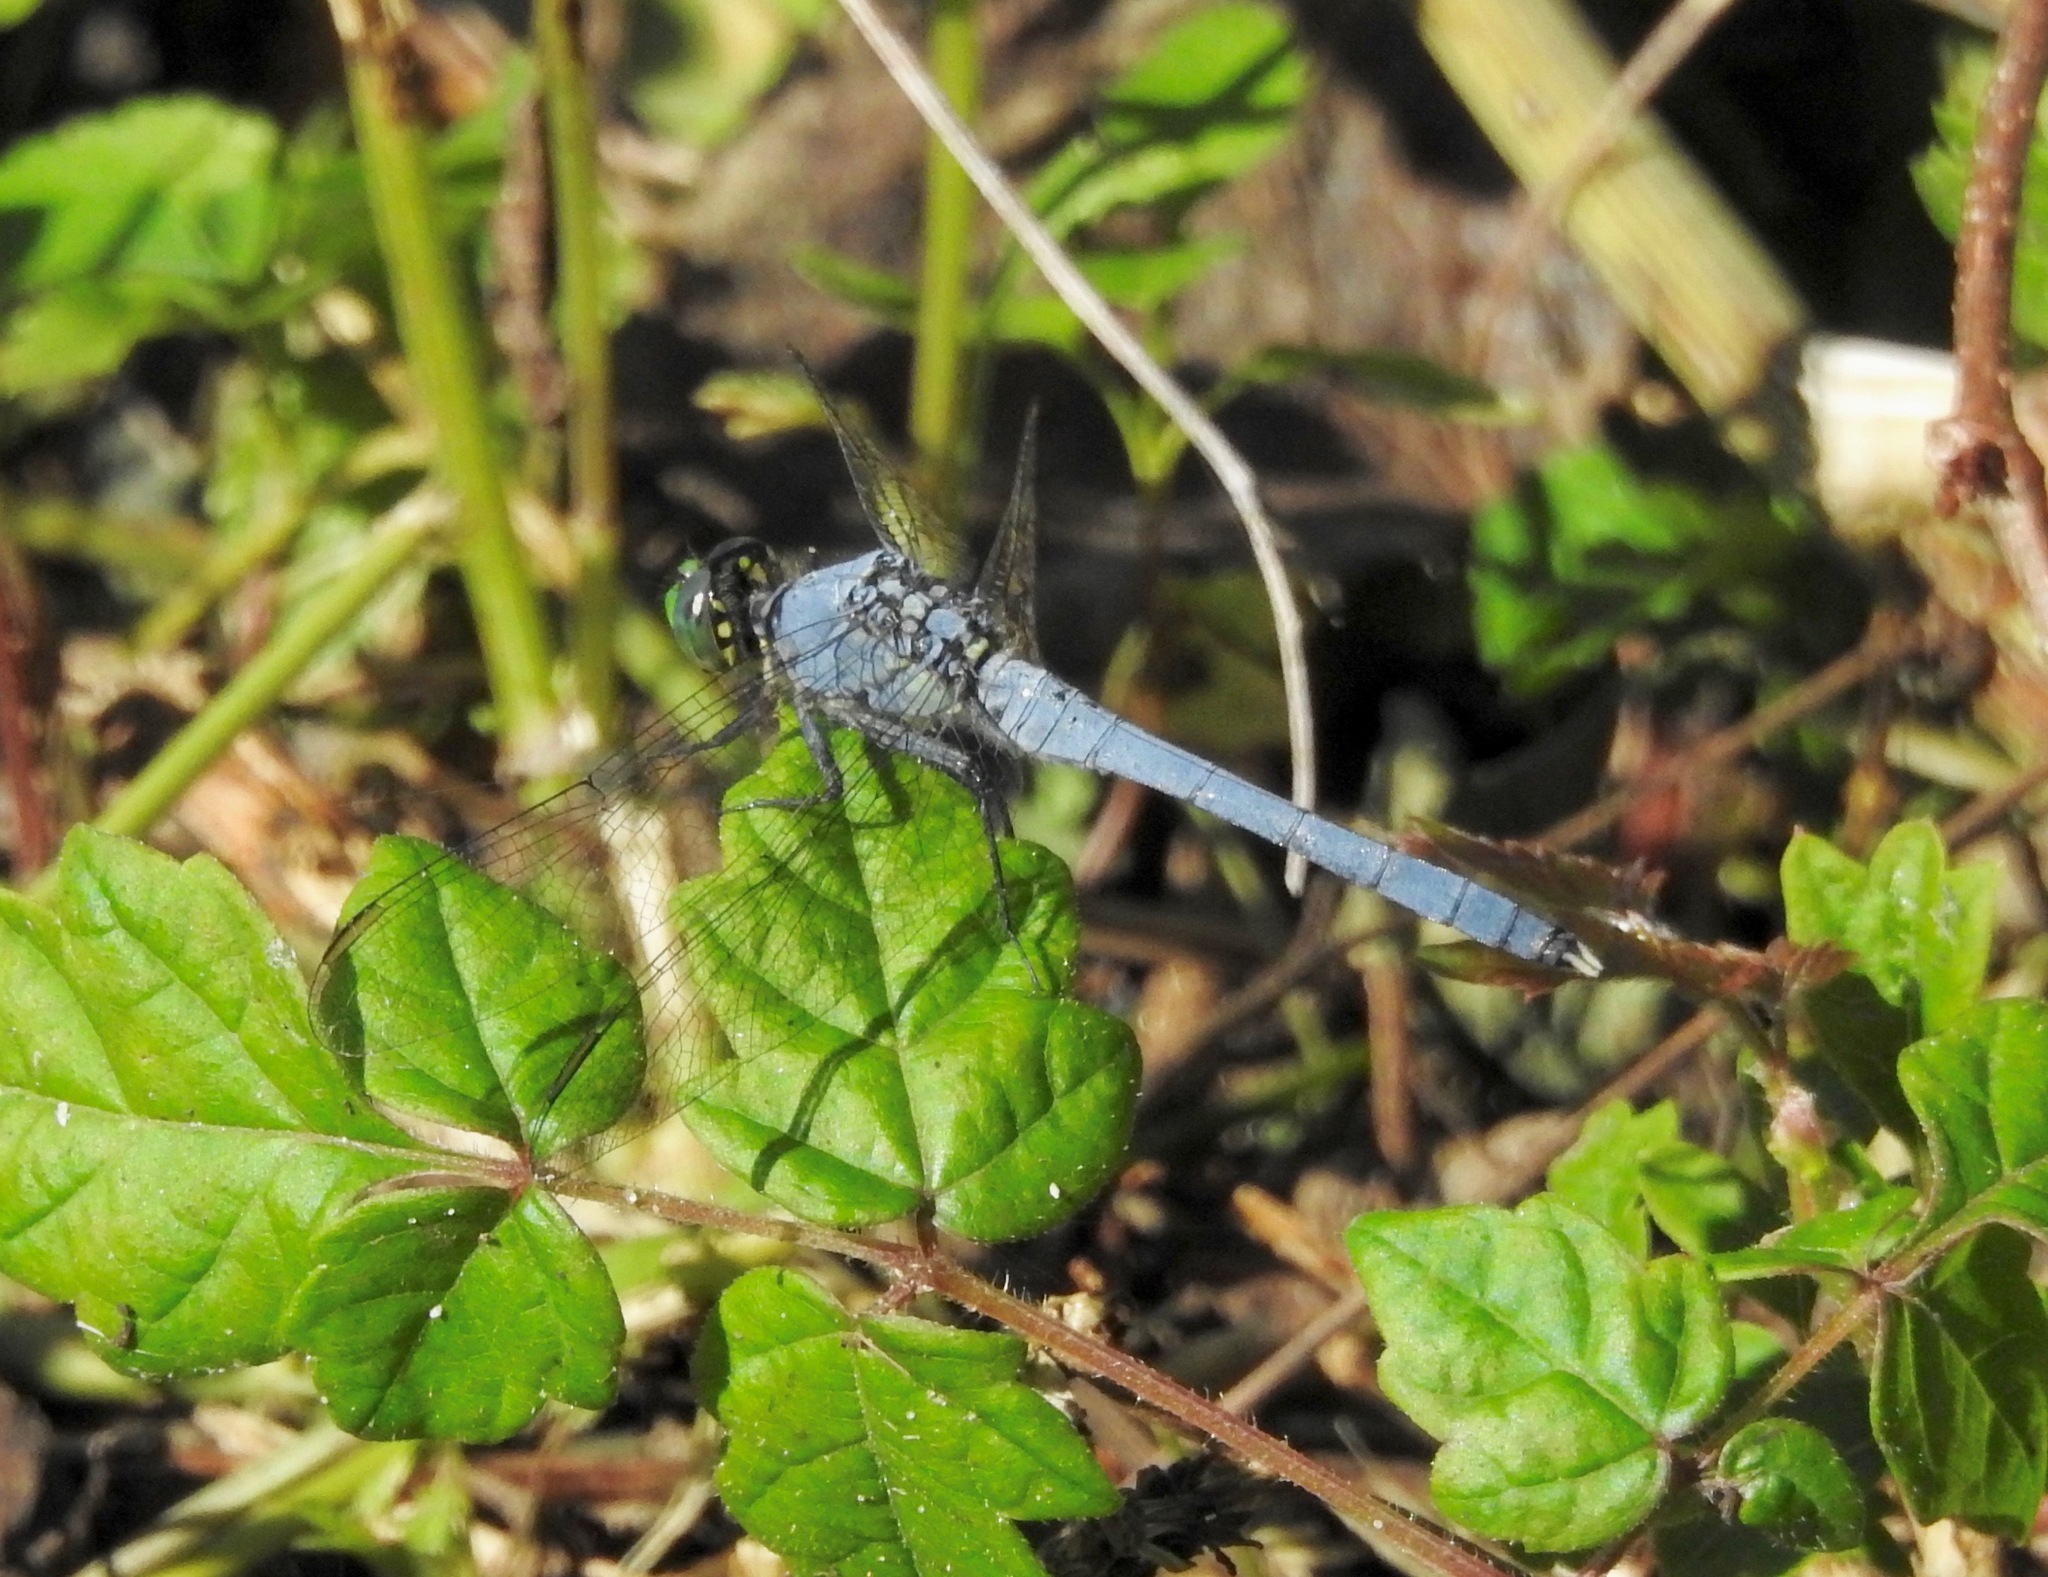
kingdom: Animalia
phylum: Arthropoda
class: Insecta
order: Odonata
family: Libellulidae
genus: Erythemis
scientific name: Erythemis simplicicollis
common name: Eastern pondhawk
